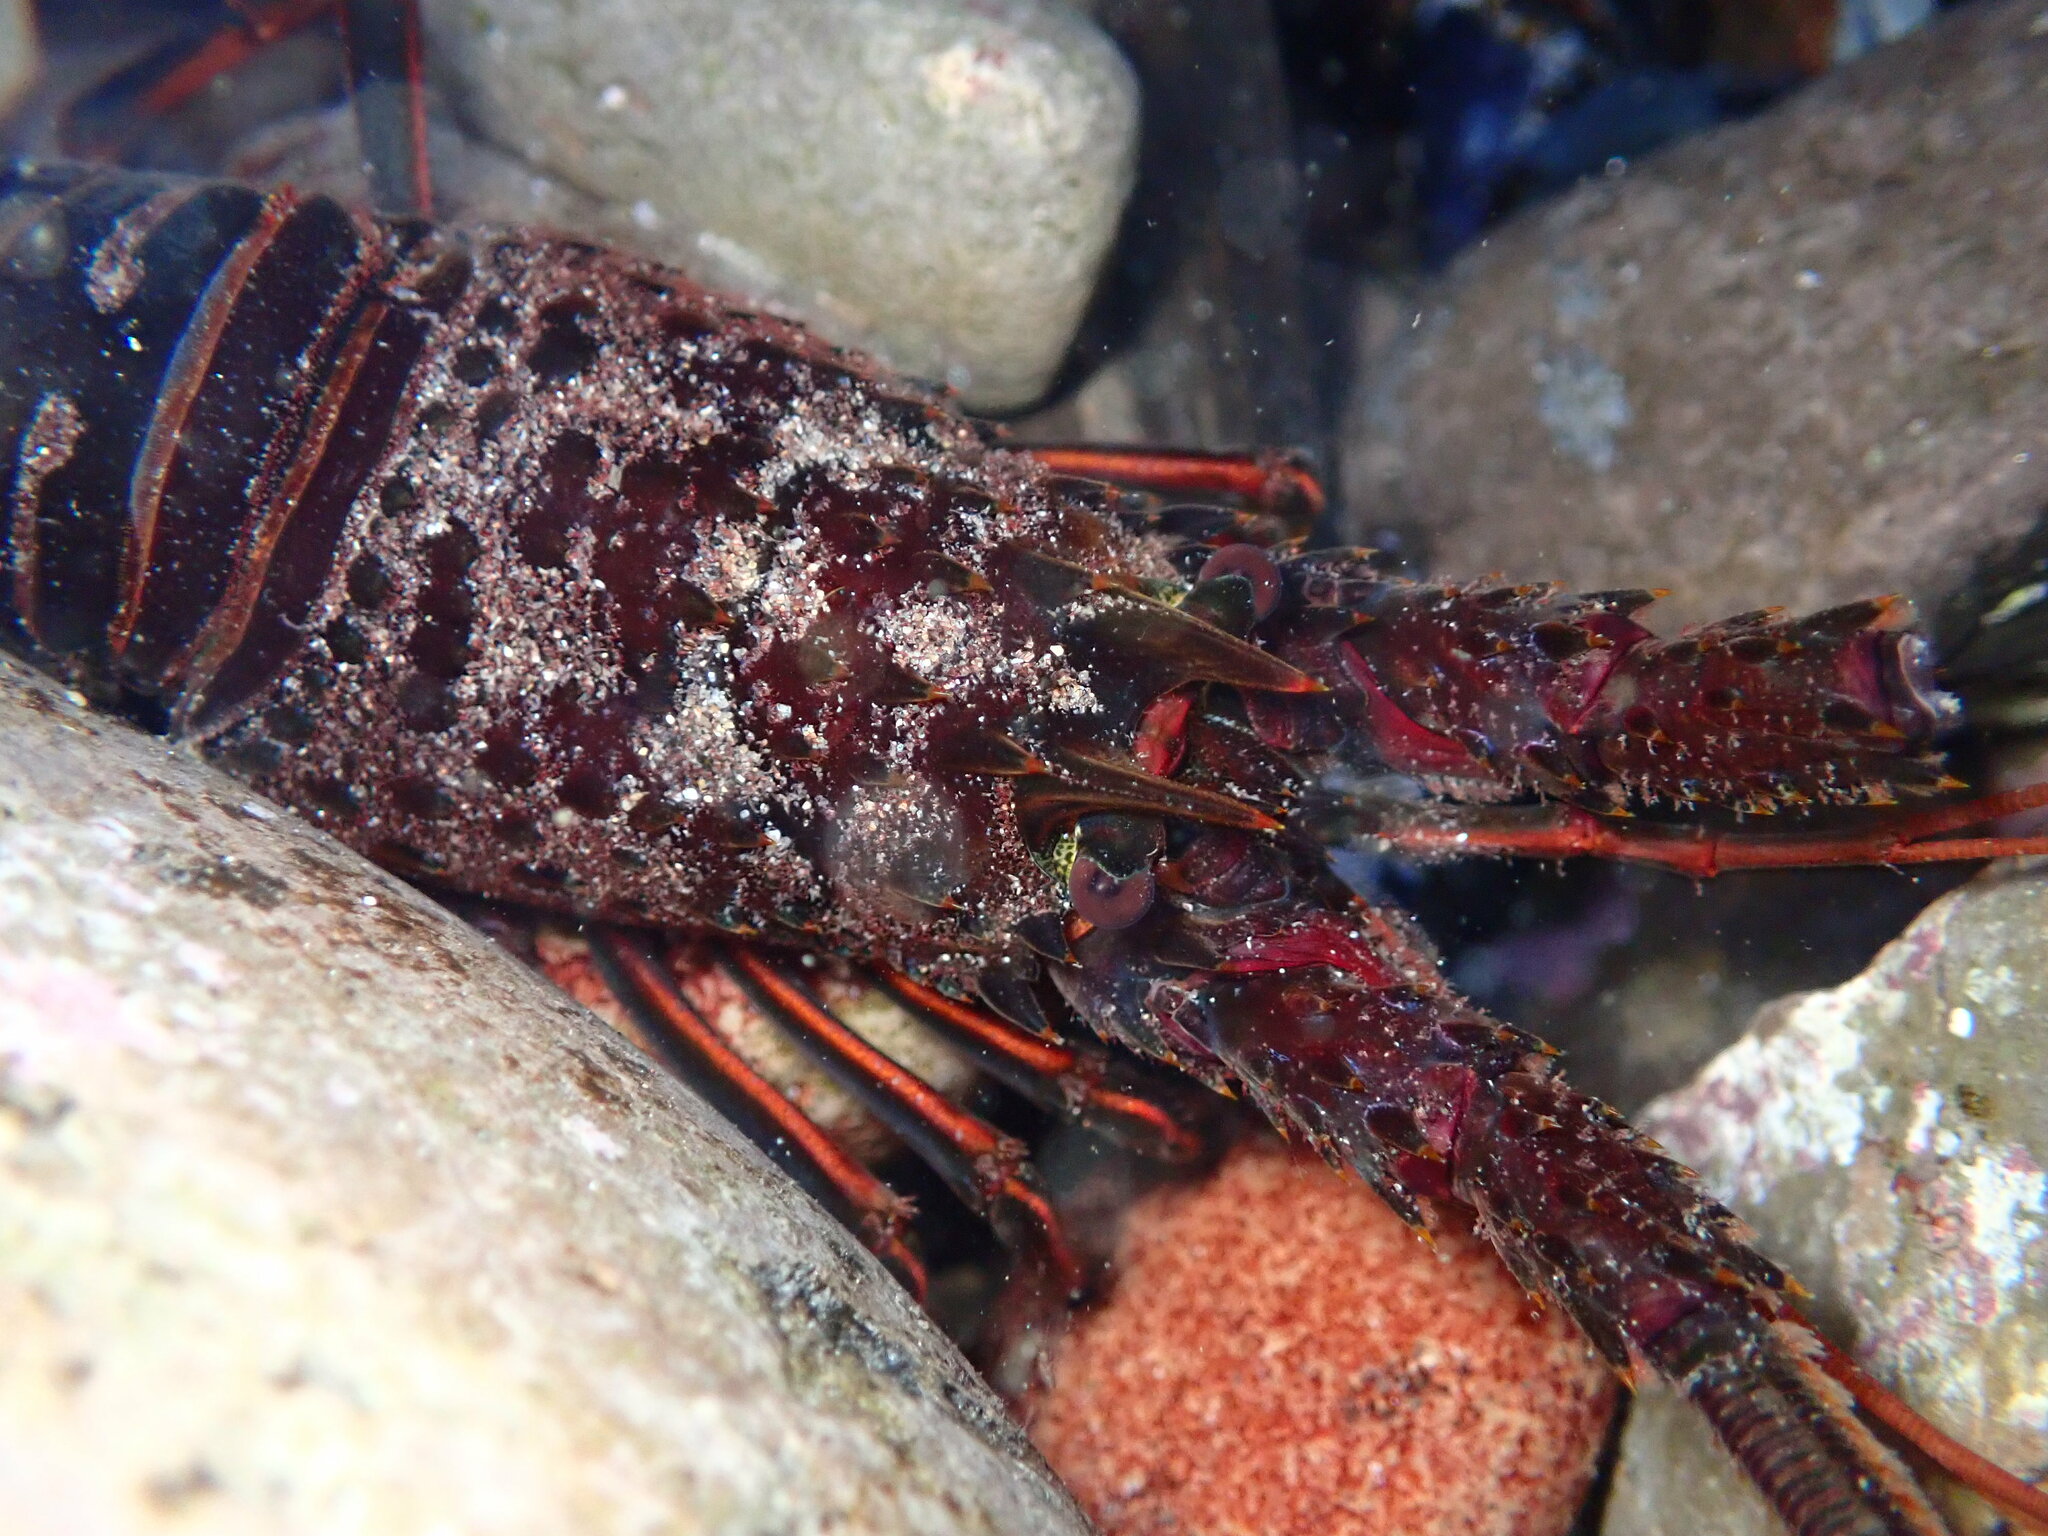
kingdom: Animalia
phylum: Arthropoda
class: Malacostraca
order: Decapoda
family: Palinuridae
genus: Panulirus
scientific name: Panulirus interruptus
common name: California spiny lobster
